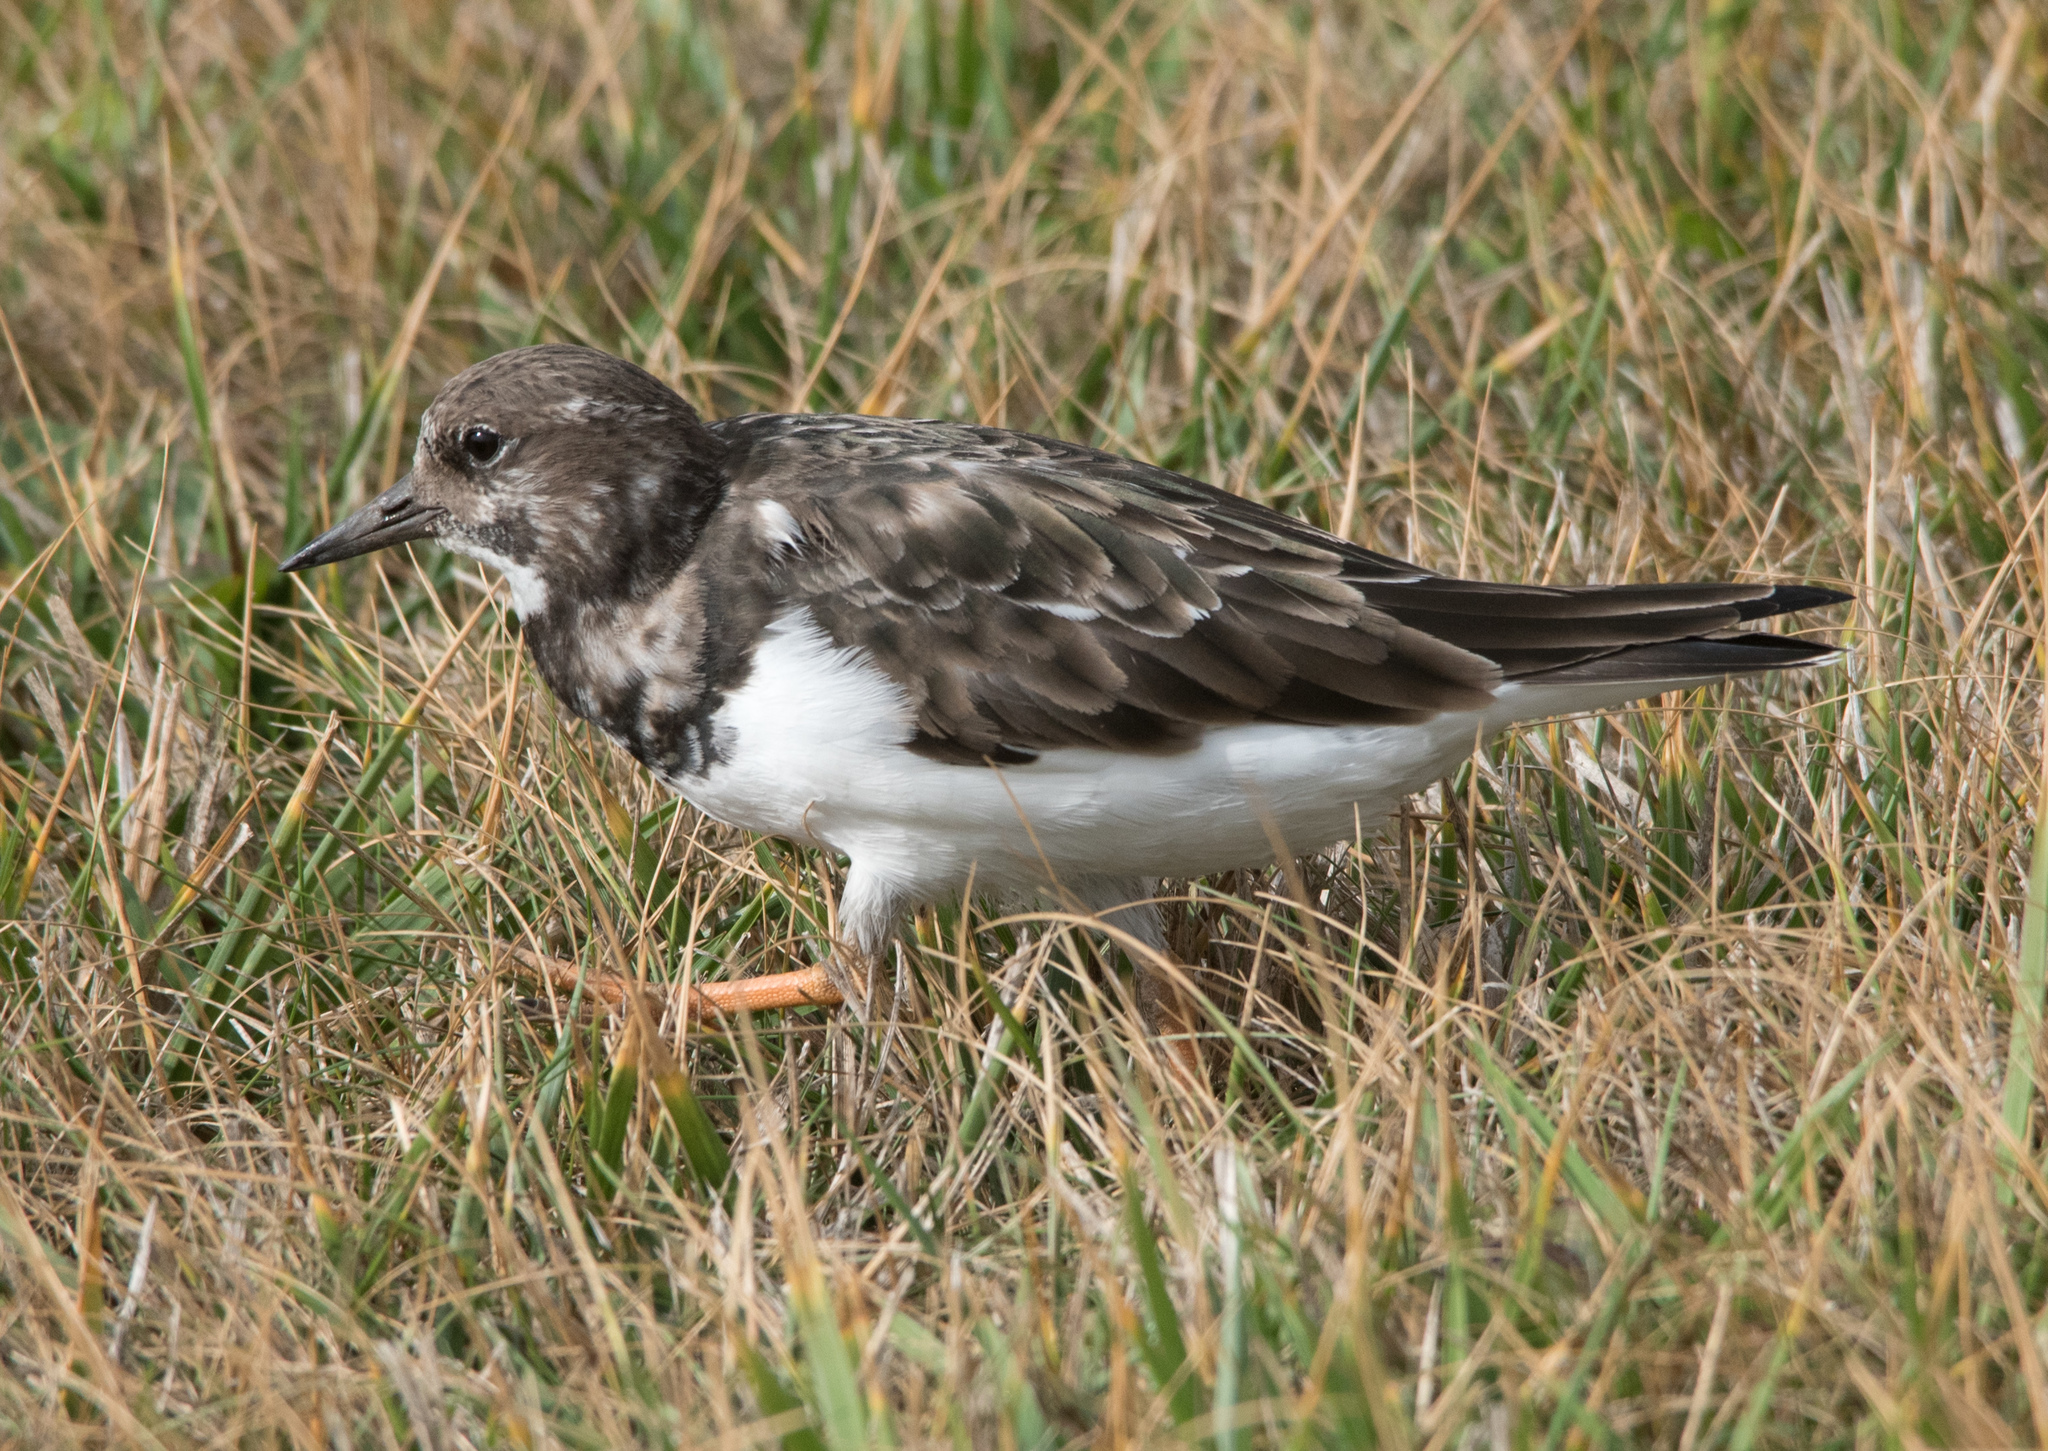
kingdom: Animalia
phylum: Chordata
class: Aves
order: Charadriiformes
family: Scolopacidae
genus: Arenaria
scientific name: Arenaria interpres
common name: Ruddy turnstone
